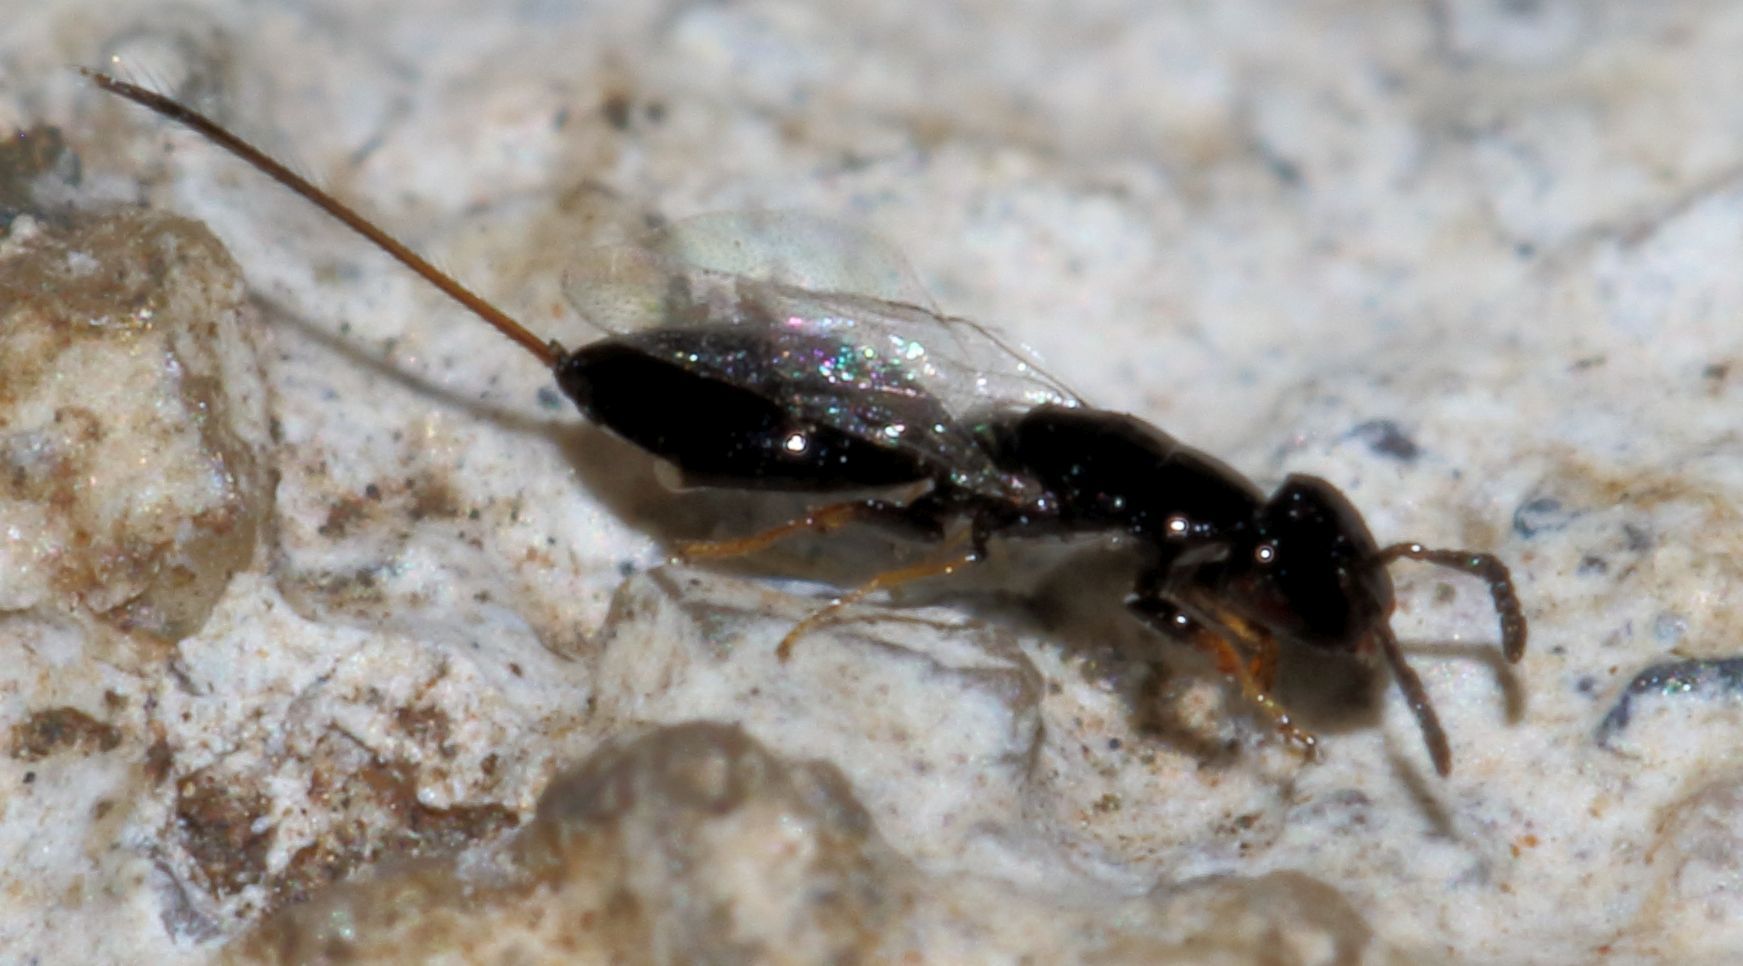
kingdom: Animalia
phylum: Arthropoda
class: Insecta
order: Hymenoptera
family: Agaonidae
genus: Sycophaga
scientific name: Sycophaga sycomori
